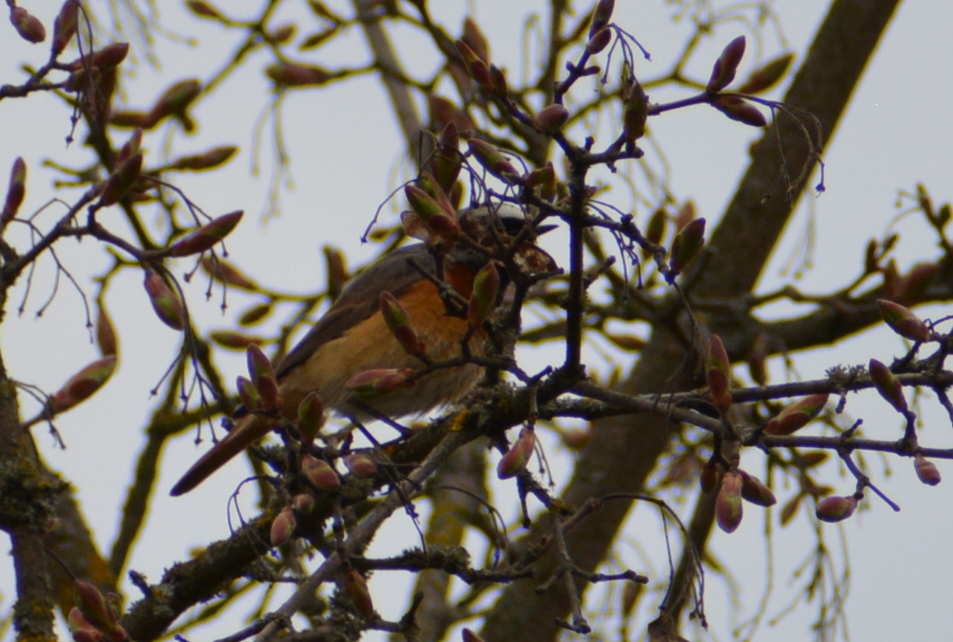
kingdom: Animalia
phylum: Chordata
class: Aves
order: Passeriformes
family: Muscicapidae
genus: Phoenicurus
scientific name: Phoenicurus phoenicurus
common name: Common redstart
